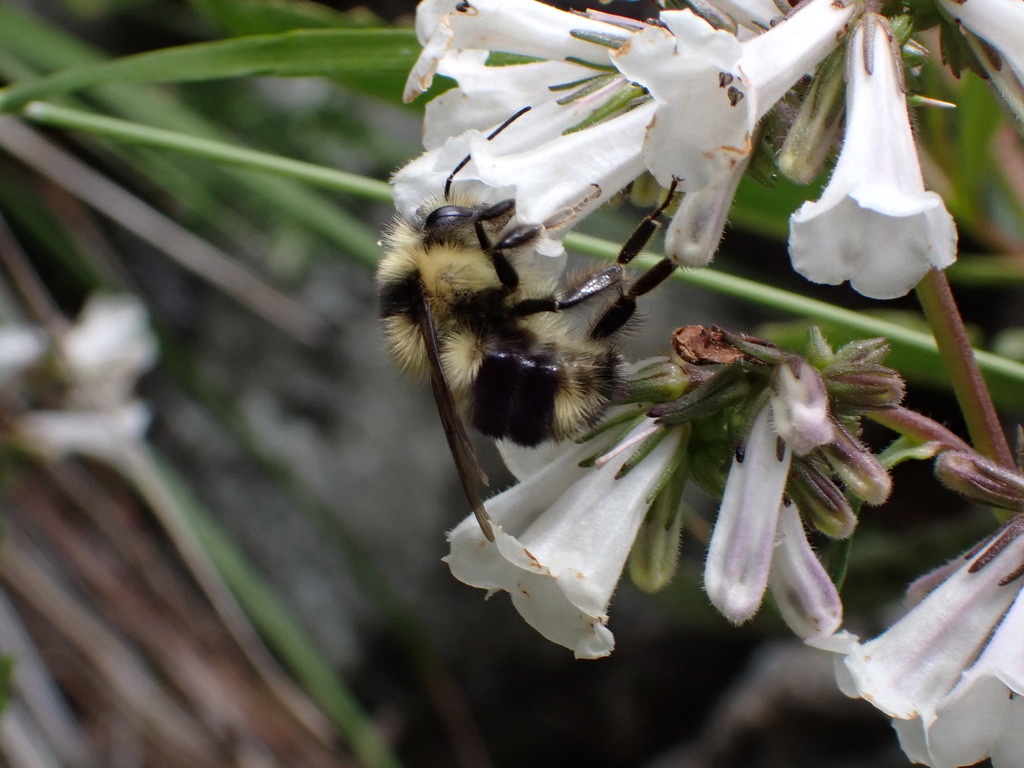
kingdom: Animalia
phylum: Arthropoda
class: Insecta
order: Hymenoptera
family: Apidae
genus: Bombus
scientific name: Bombus melanopygus
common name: Black tail bumble bee
